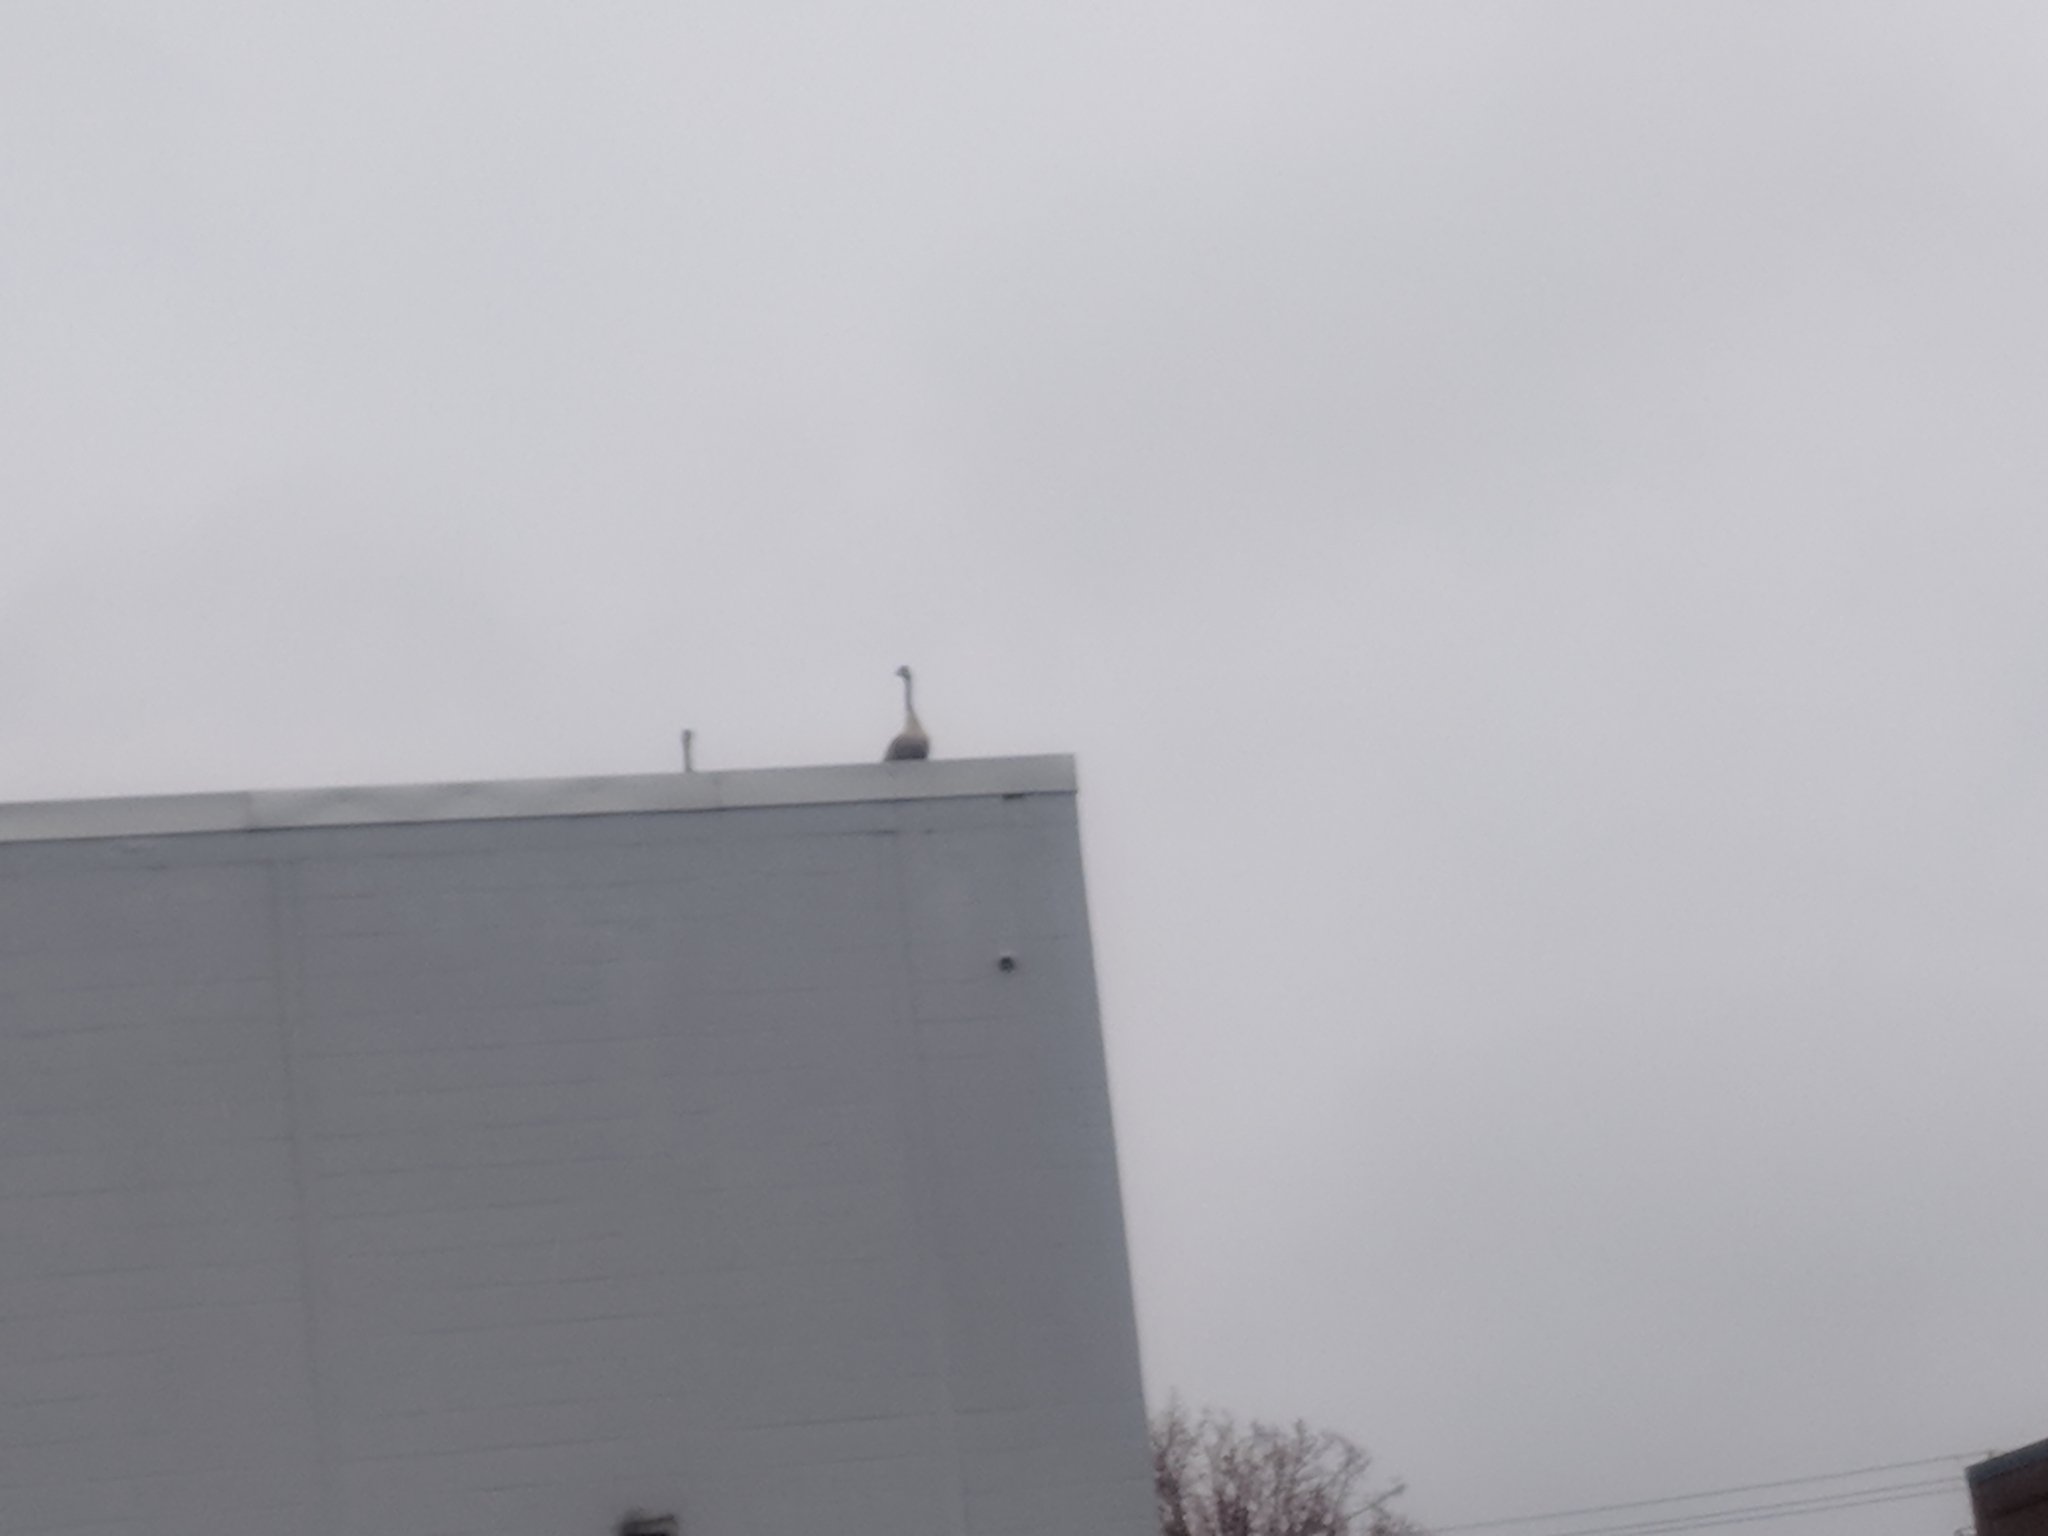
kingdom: Animalia
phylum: Chordata
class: Aves
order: Anseriformes
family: Anatidae
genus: Branta
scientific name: Branta canadensis
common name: Canada goose
